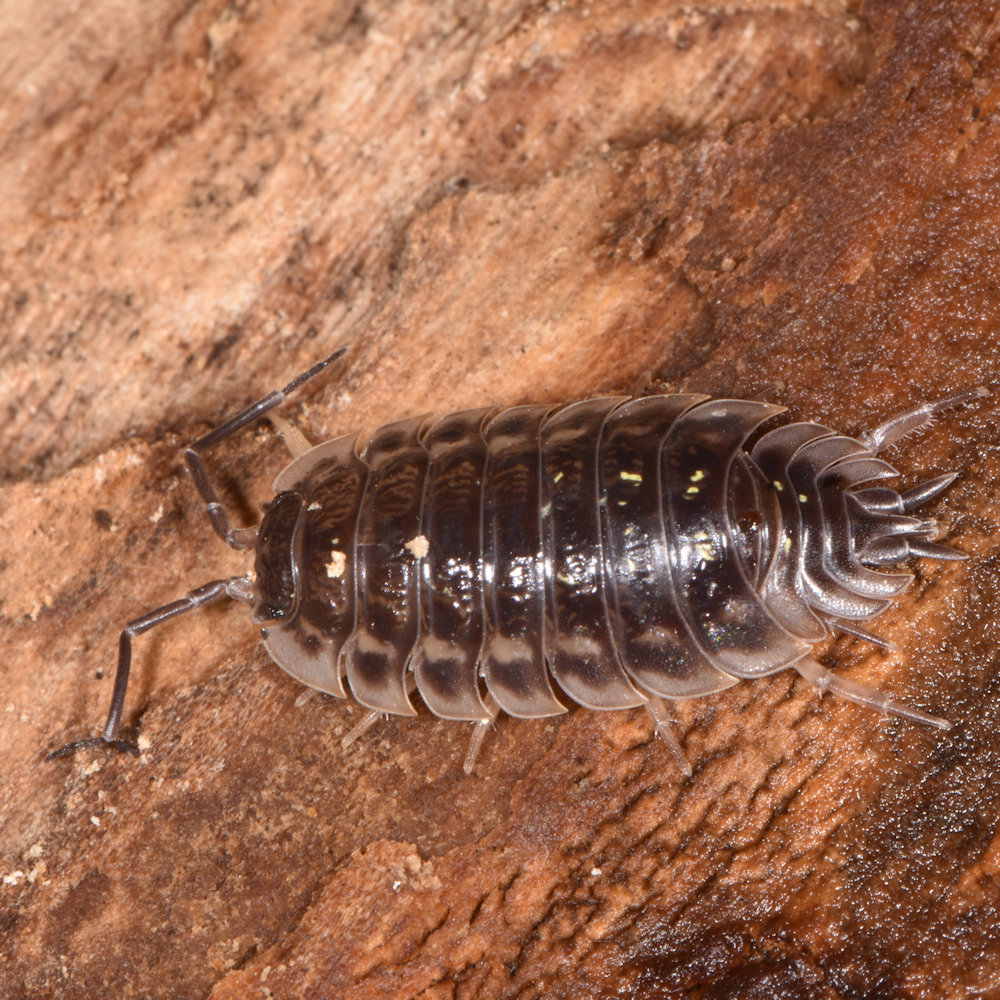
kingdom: Animalia
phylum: Arthropoda
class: Malacostraca
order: Isopoda
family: Oniscidae
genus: Oniscus
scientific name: Oniscus asellus
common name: Common shiny woodlouse
